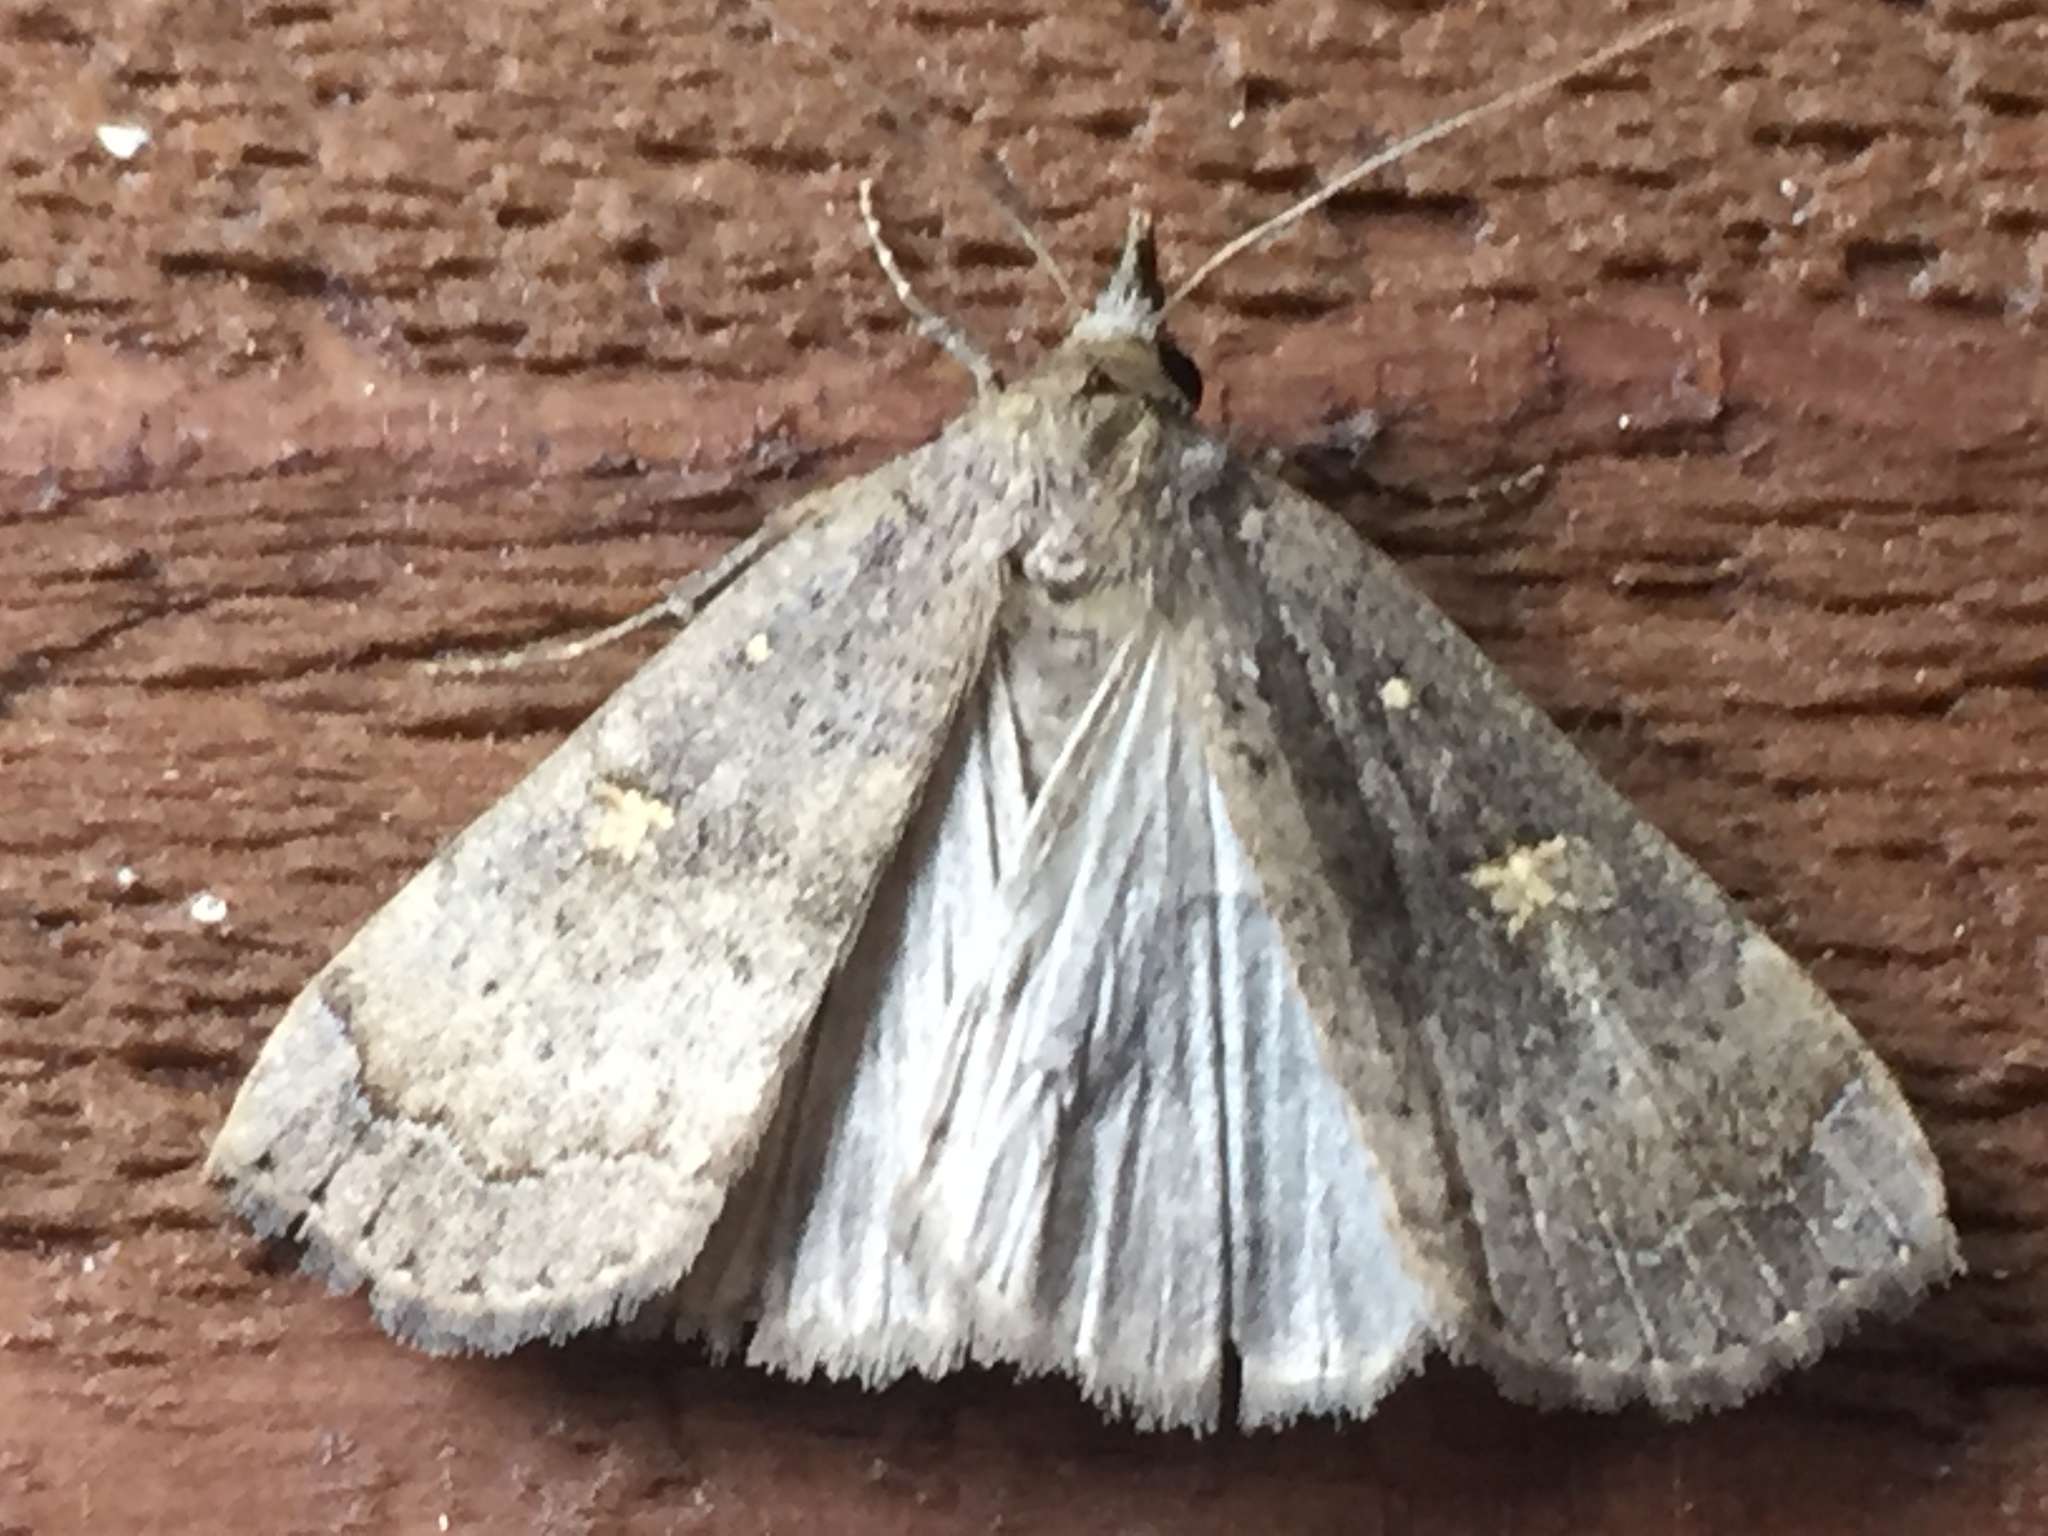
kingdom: Animalia
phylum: Arthropoda
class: Insecta
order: Lepidoptera
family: Erebidae
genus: Rhapsa
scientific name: Rhapsa scotosialis
